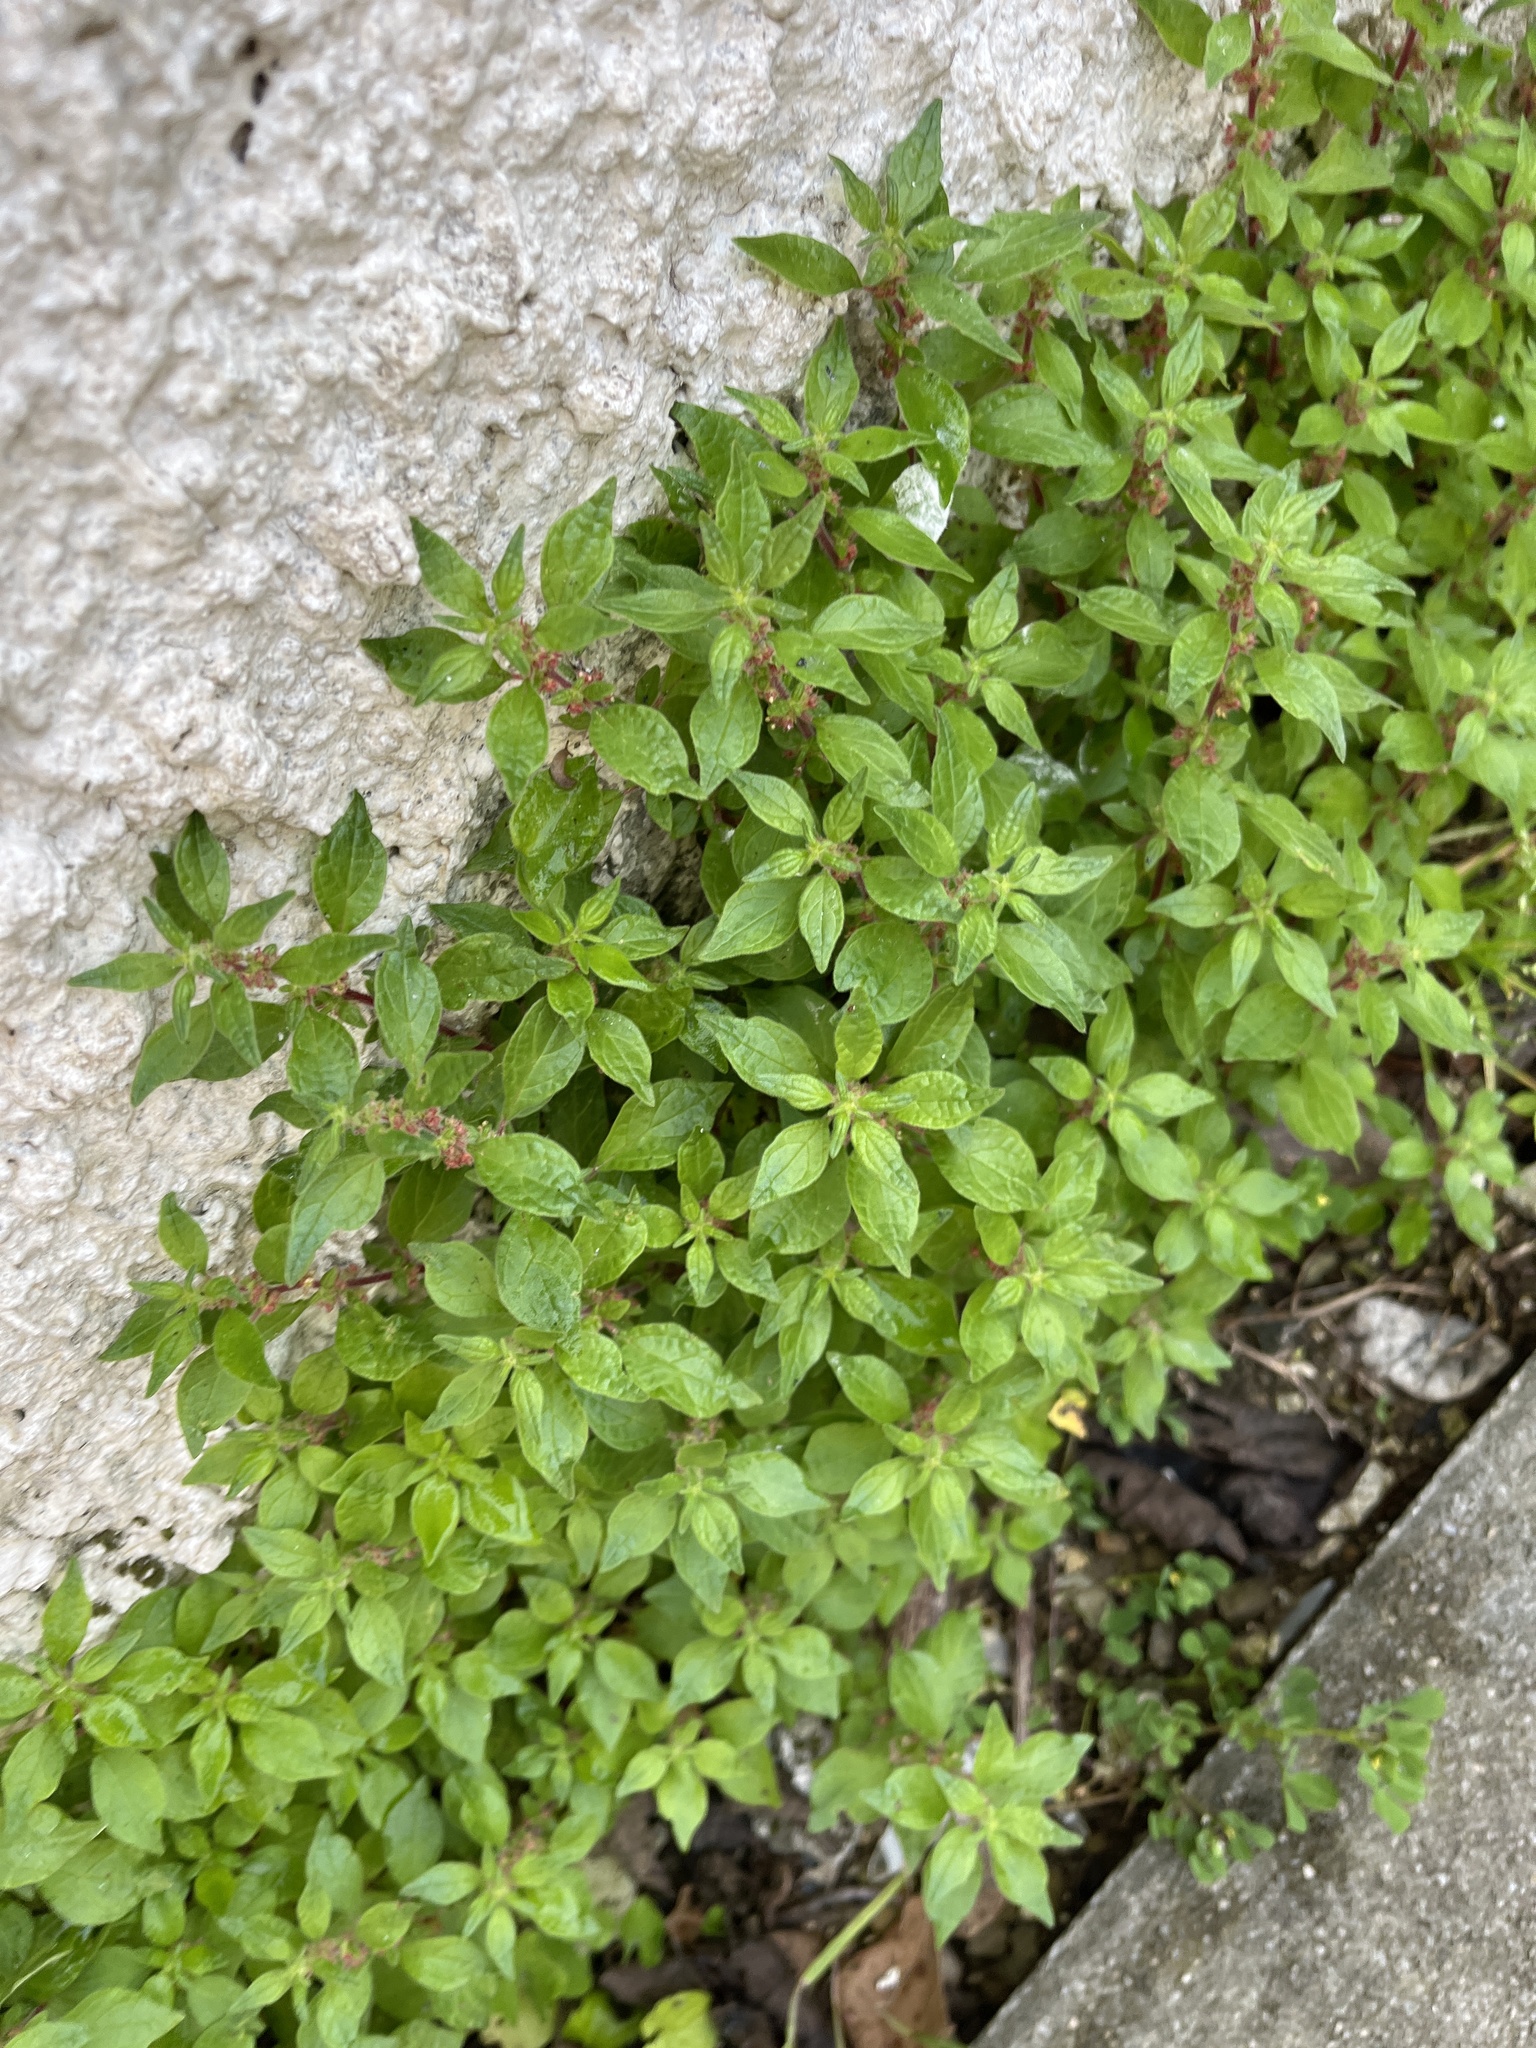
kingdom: Plantae
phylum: Tracheophyta
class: Magnoliopsida
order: Rosales
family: Urticaceae
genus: Parietaria
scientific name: Parietaria judaica
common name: Pellitory-of-the-wall
